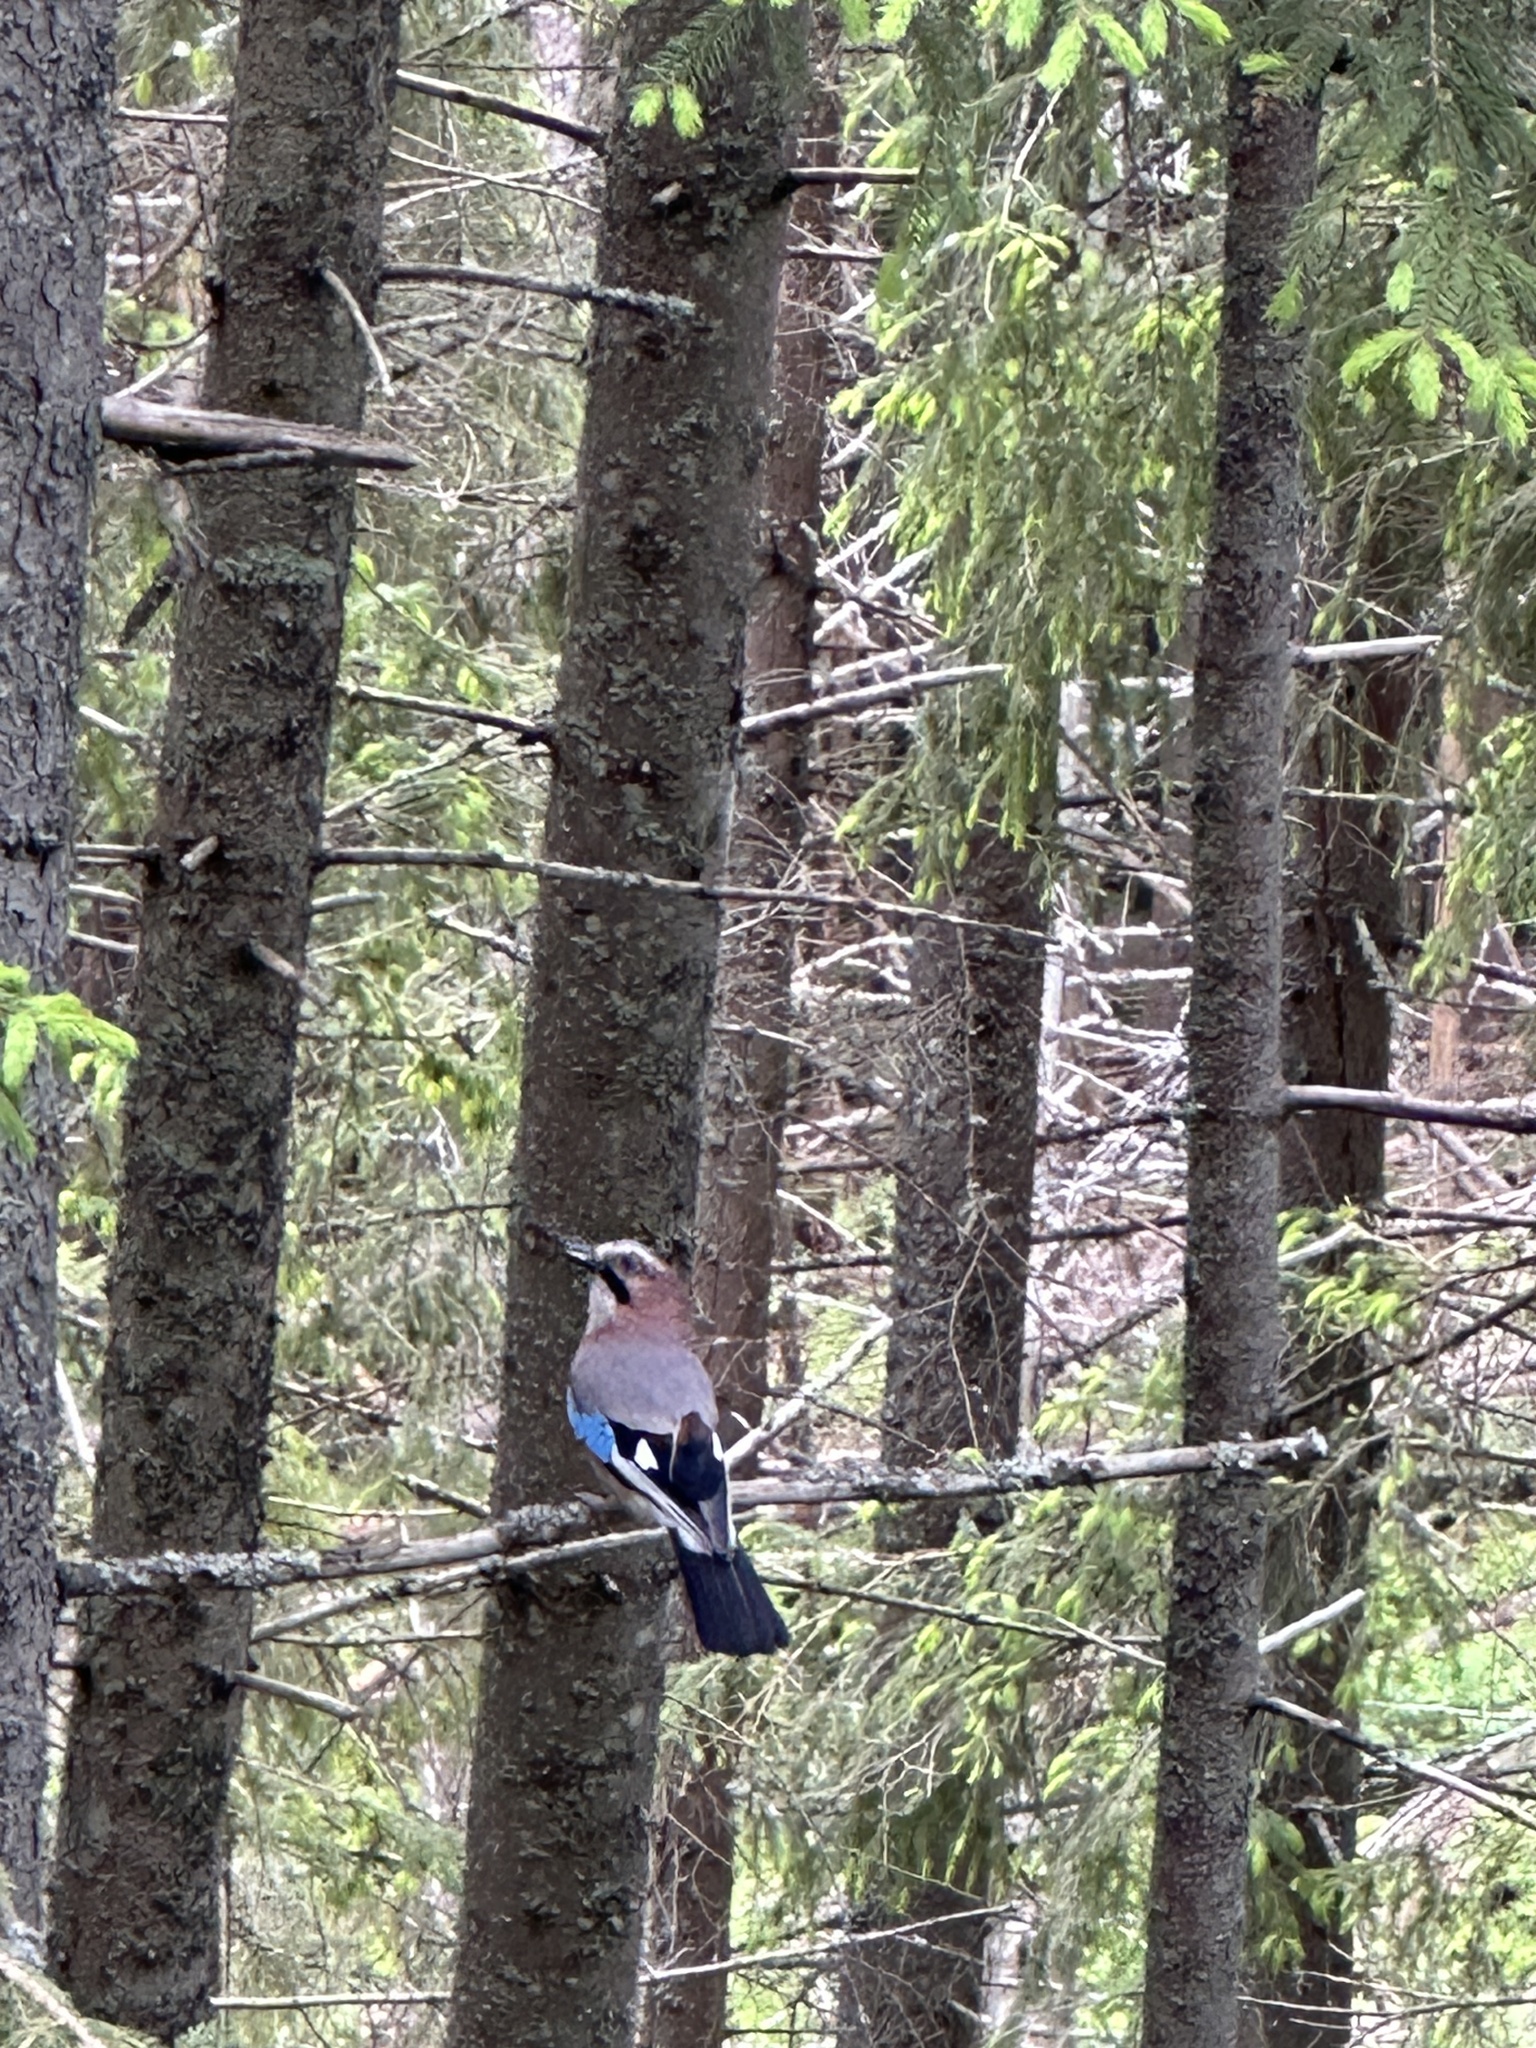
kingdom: Animalia
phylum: Chordata
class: Aves
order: Passeriformes
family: Corvidae
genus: Garrulus
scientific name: Garrulus glandarius
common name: Eurasian jay
